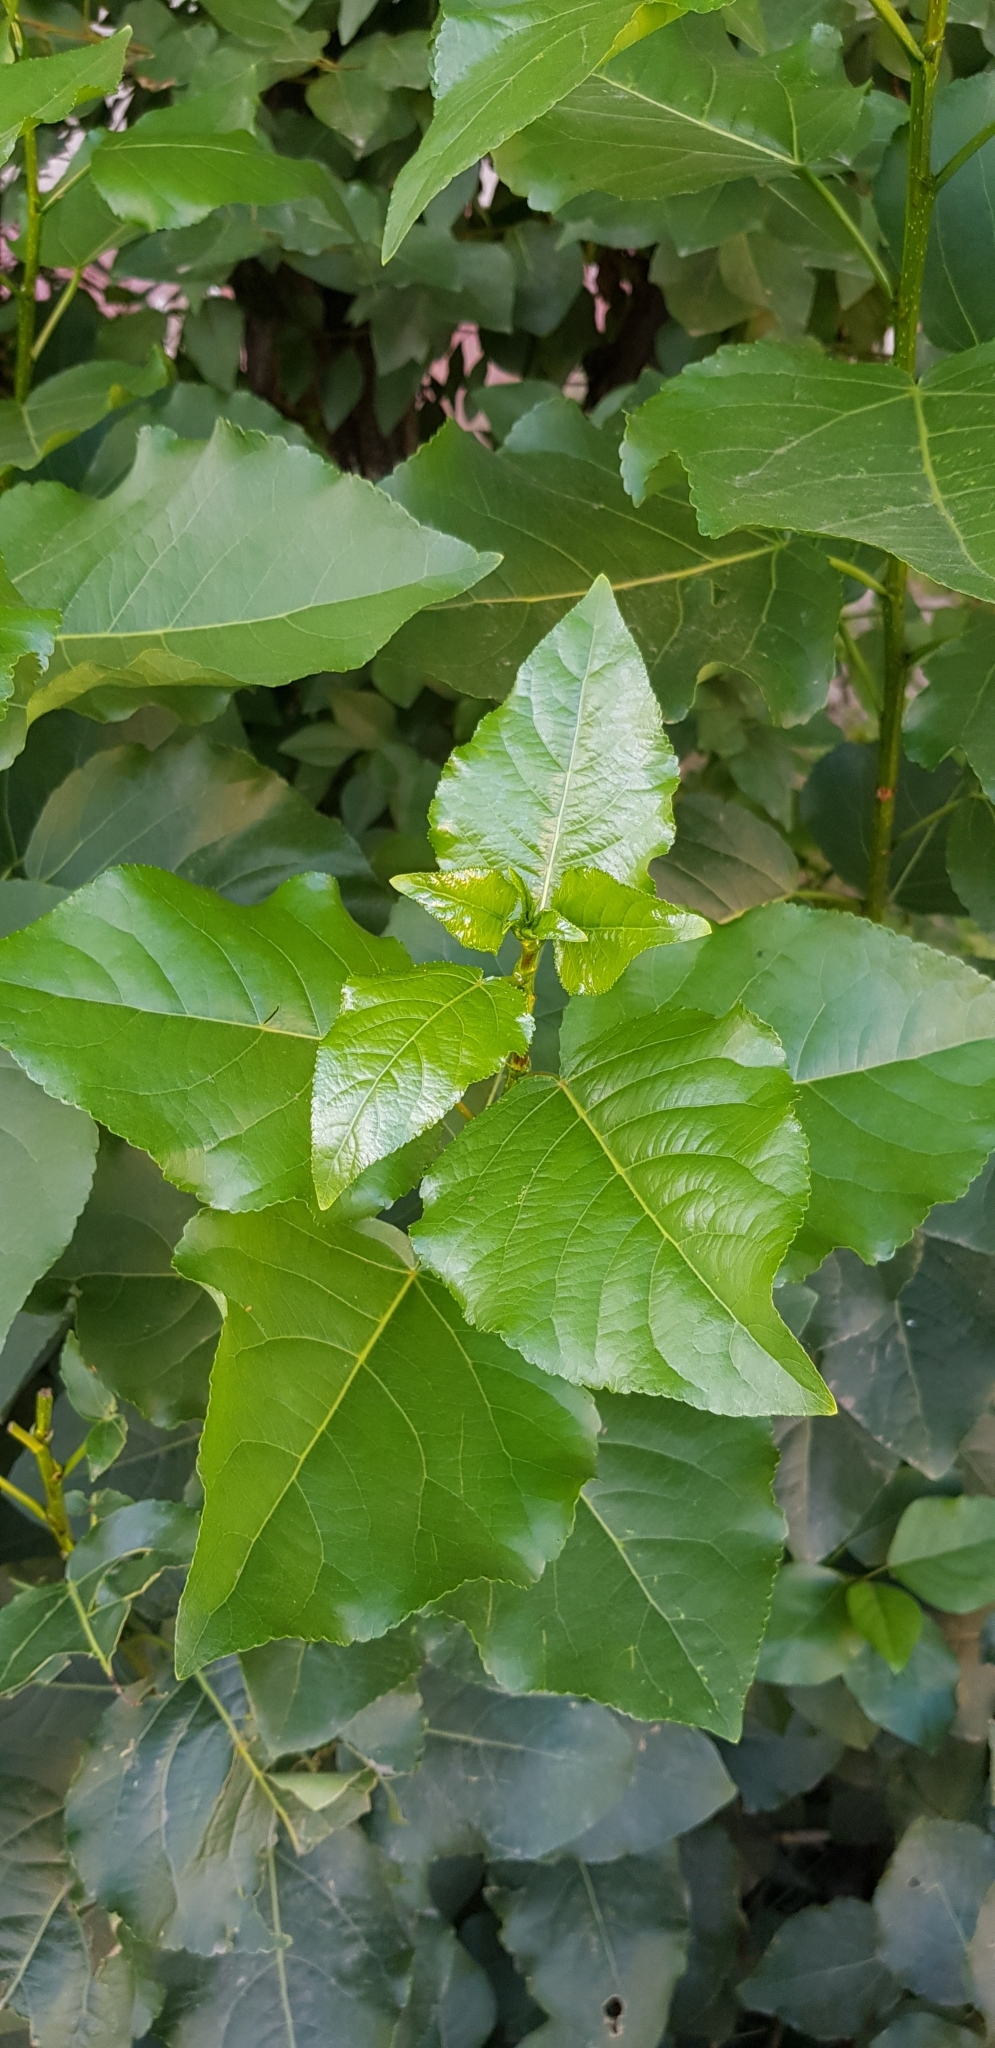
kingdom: Plantae
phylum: Tracheophyta
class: Magnoliopsida
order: Malpighiales
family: Salicaceae
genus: Populus
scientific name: Populus nigra
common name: Black poplar
